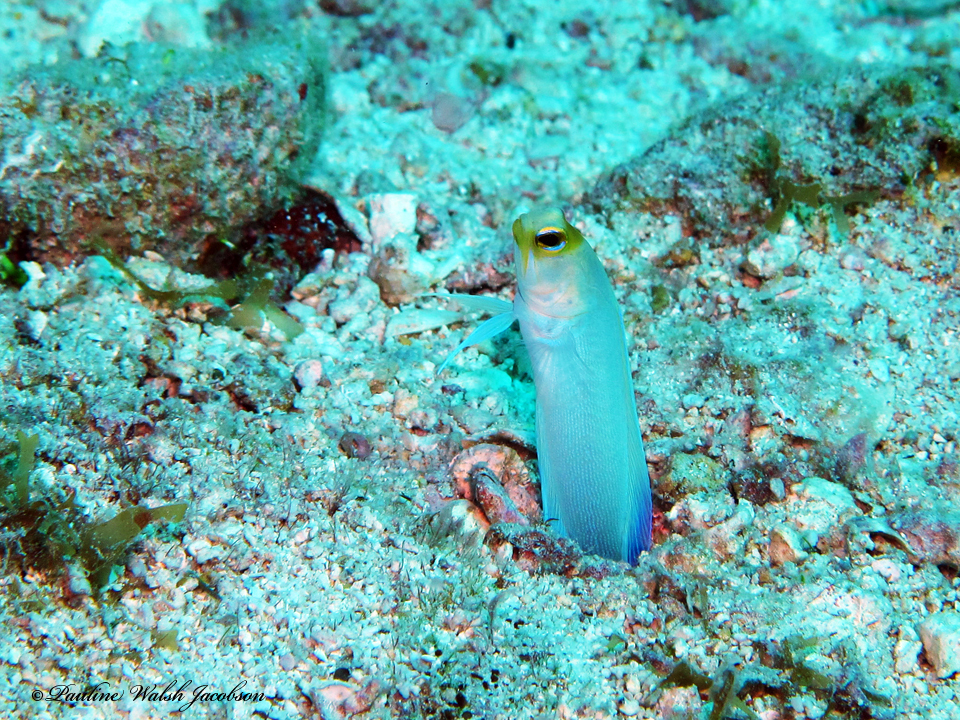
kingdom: Animalia
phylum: Chordata
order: Perciformes
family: Opistognathidae
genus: Opistognathus
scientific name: Opistognathus aurifrons
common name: Yellowhead jawfish
